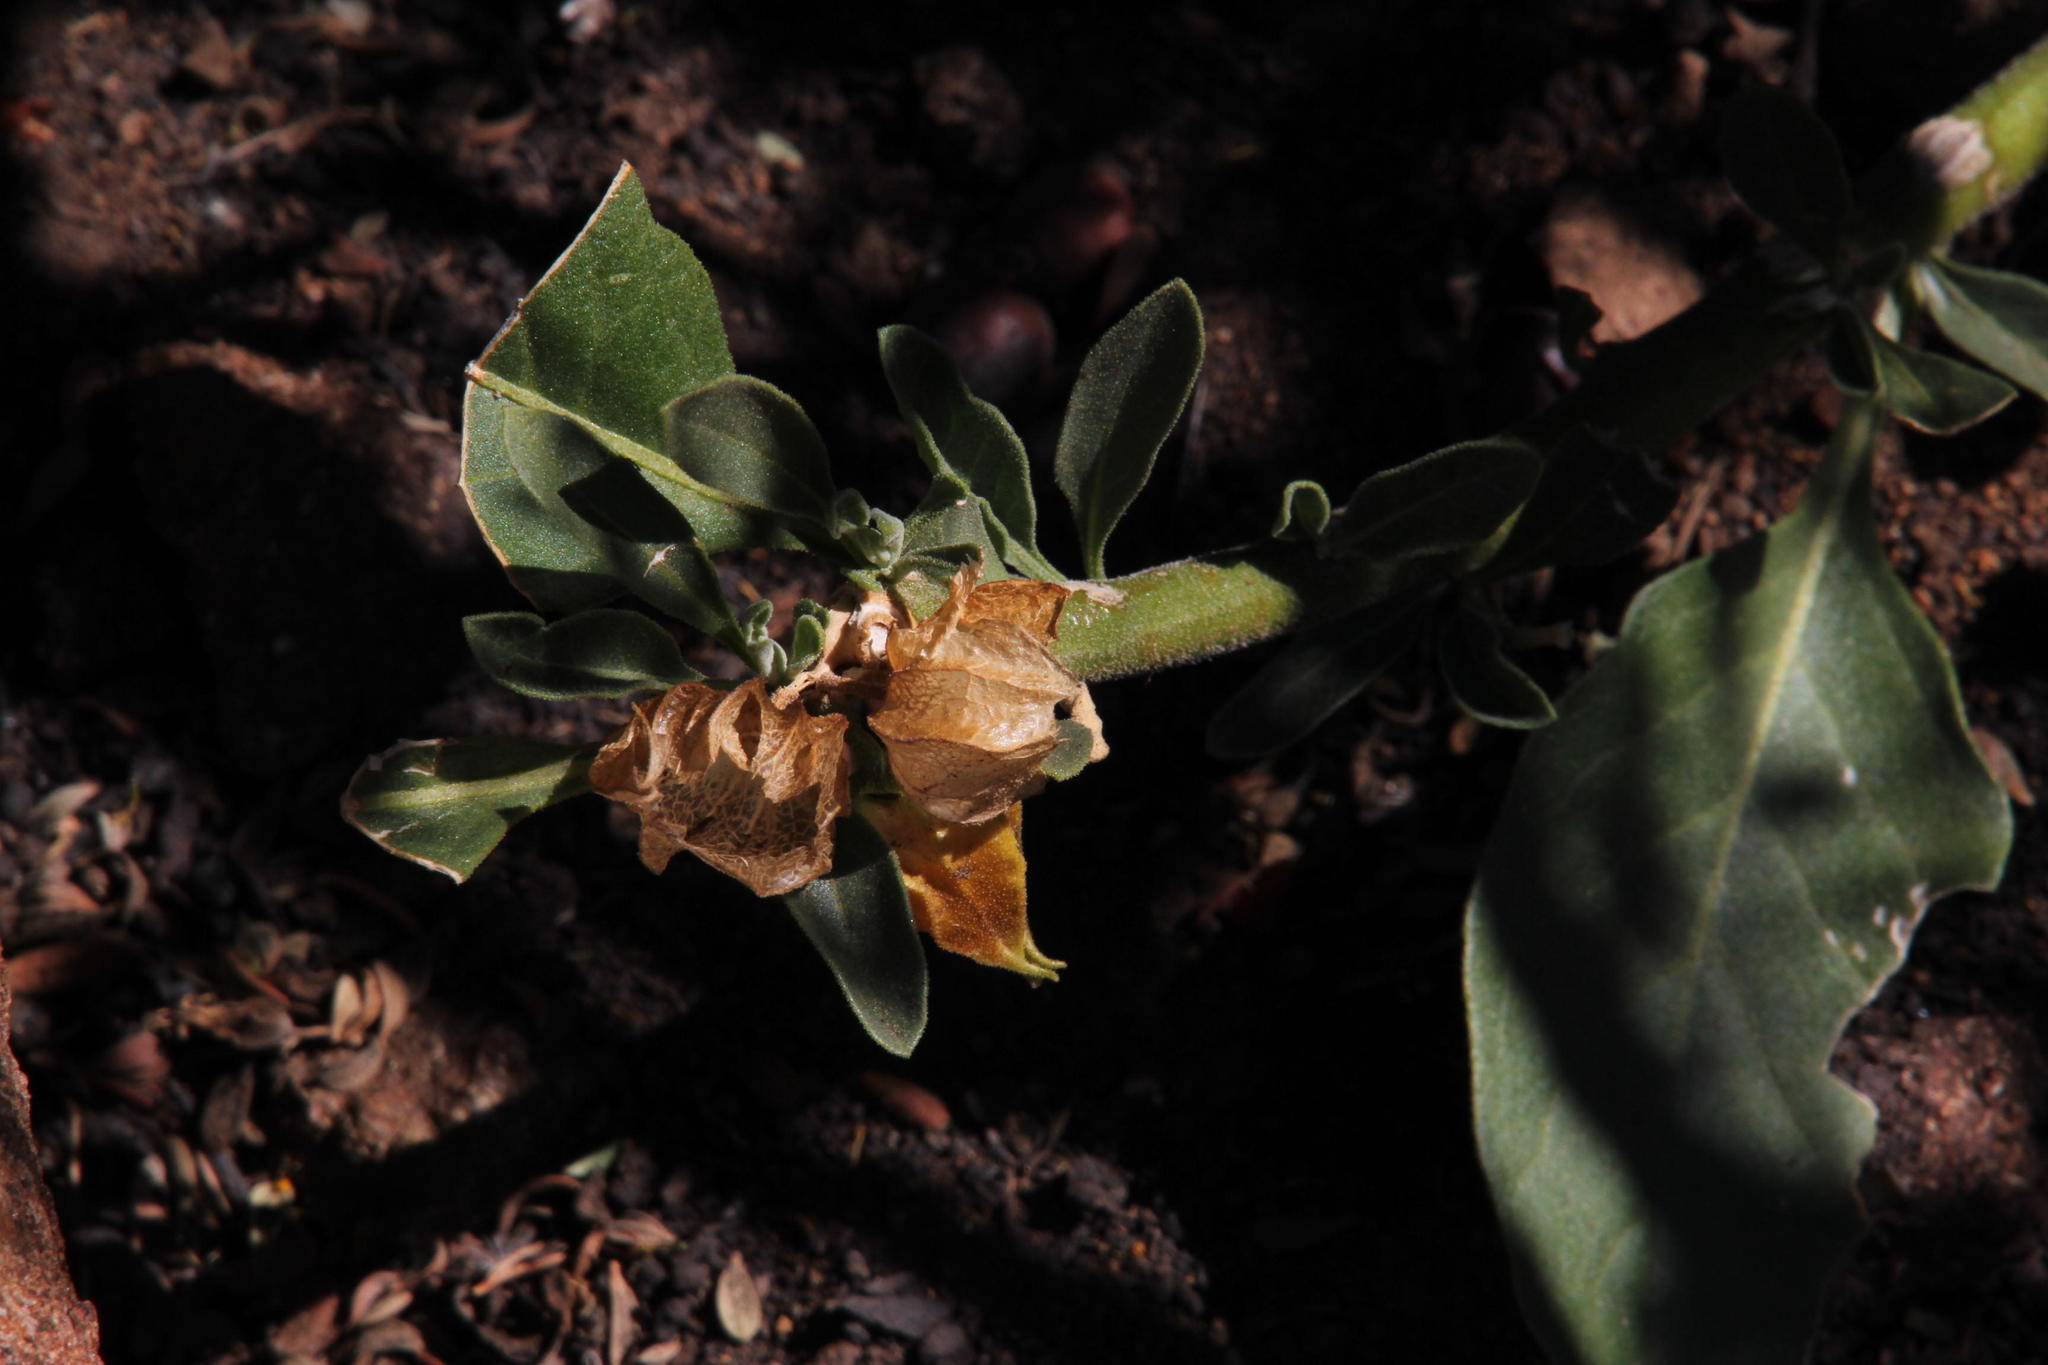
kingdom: Plantae
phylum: Tracheophyta
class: Magnoliopsida
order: Solanales
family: Solanaceae
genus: Withania
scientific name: Withania somnifera
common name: Winter-cherry
